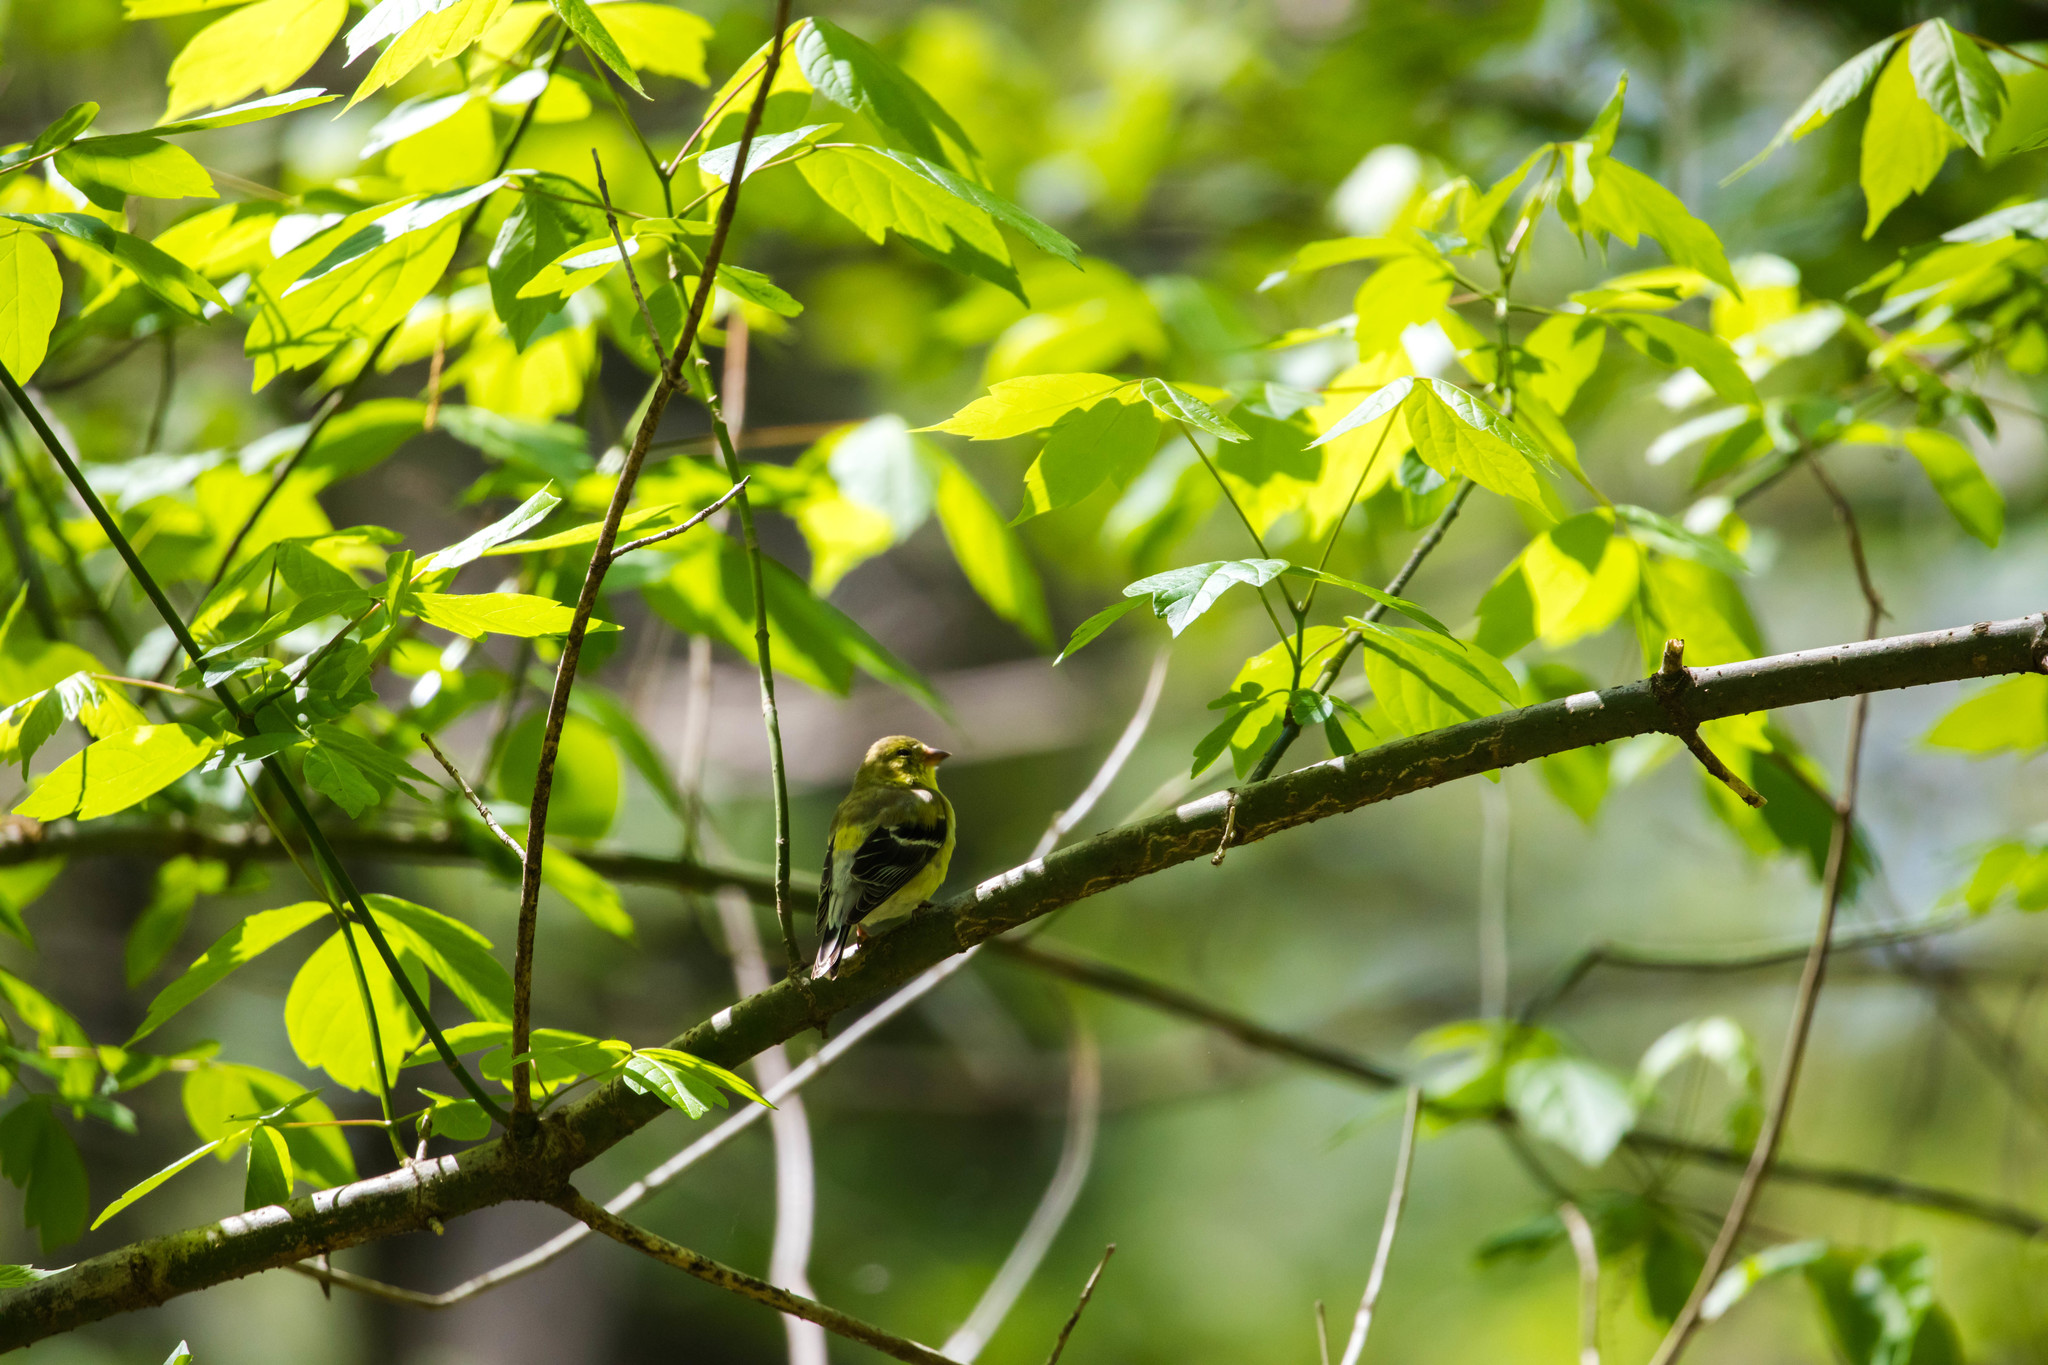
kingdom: Animalia
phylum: Chordata
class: Aves
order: Passeriformes
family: Fringillidae
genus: Spinus
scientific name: Spinus tristis
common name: American goldfinch
